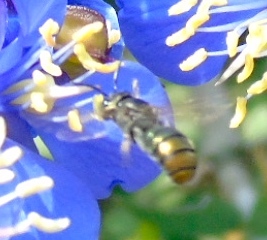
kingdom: Animalia
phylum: Arthropoda
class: Insecta
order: Hymenoptera
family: Apidae
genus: Ceratina
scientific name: Ceratina
